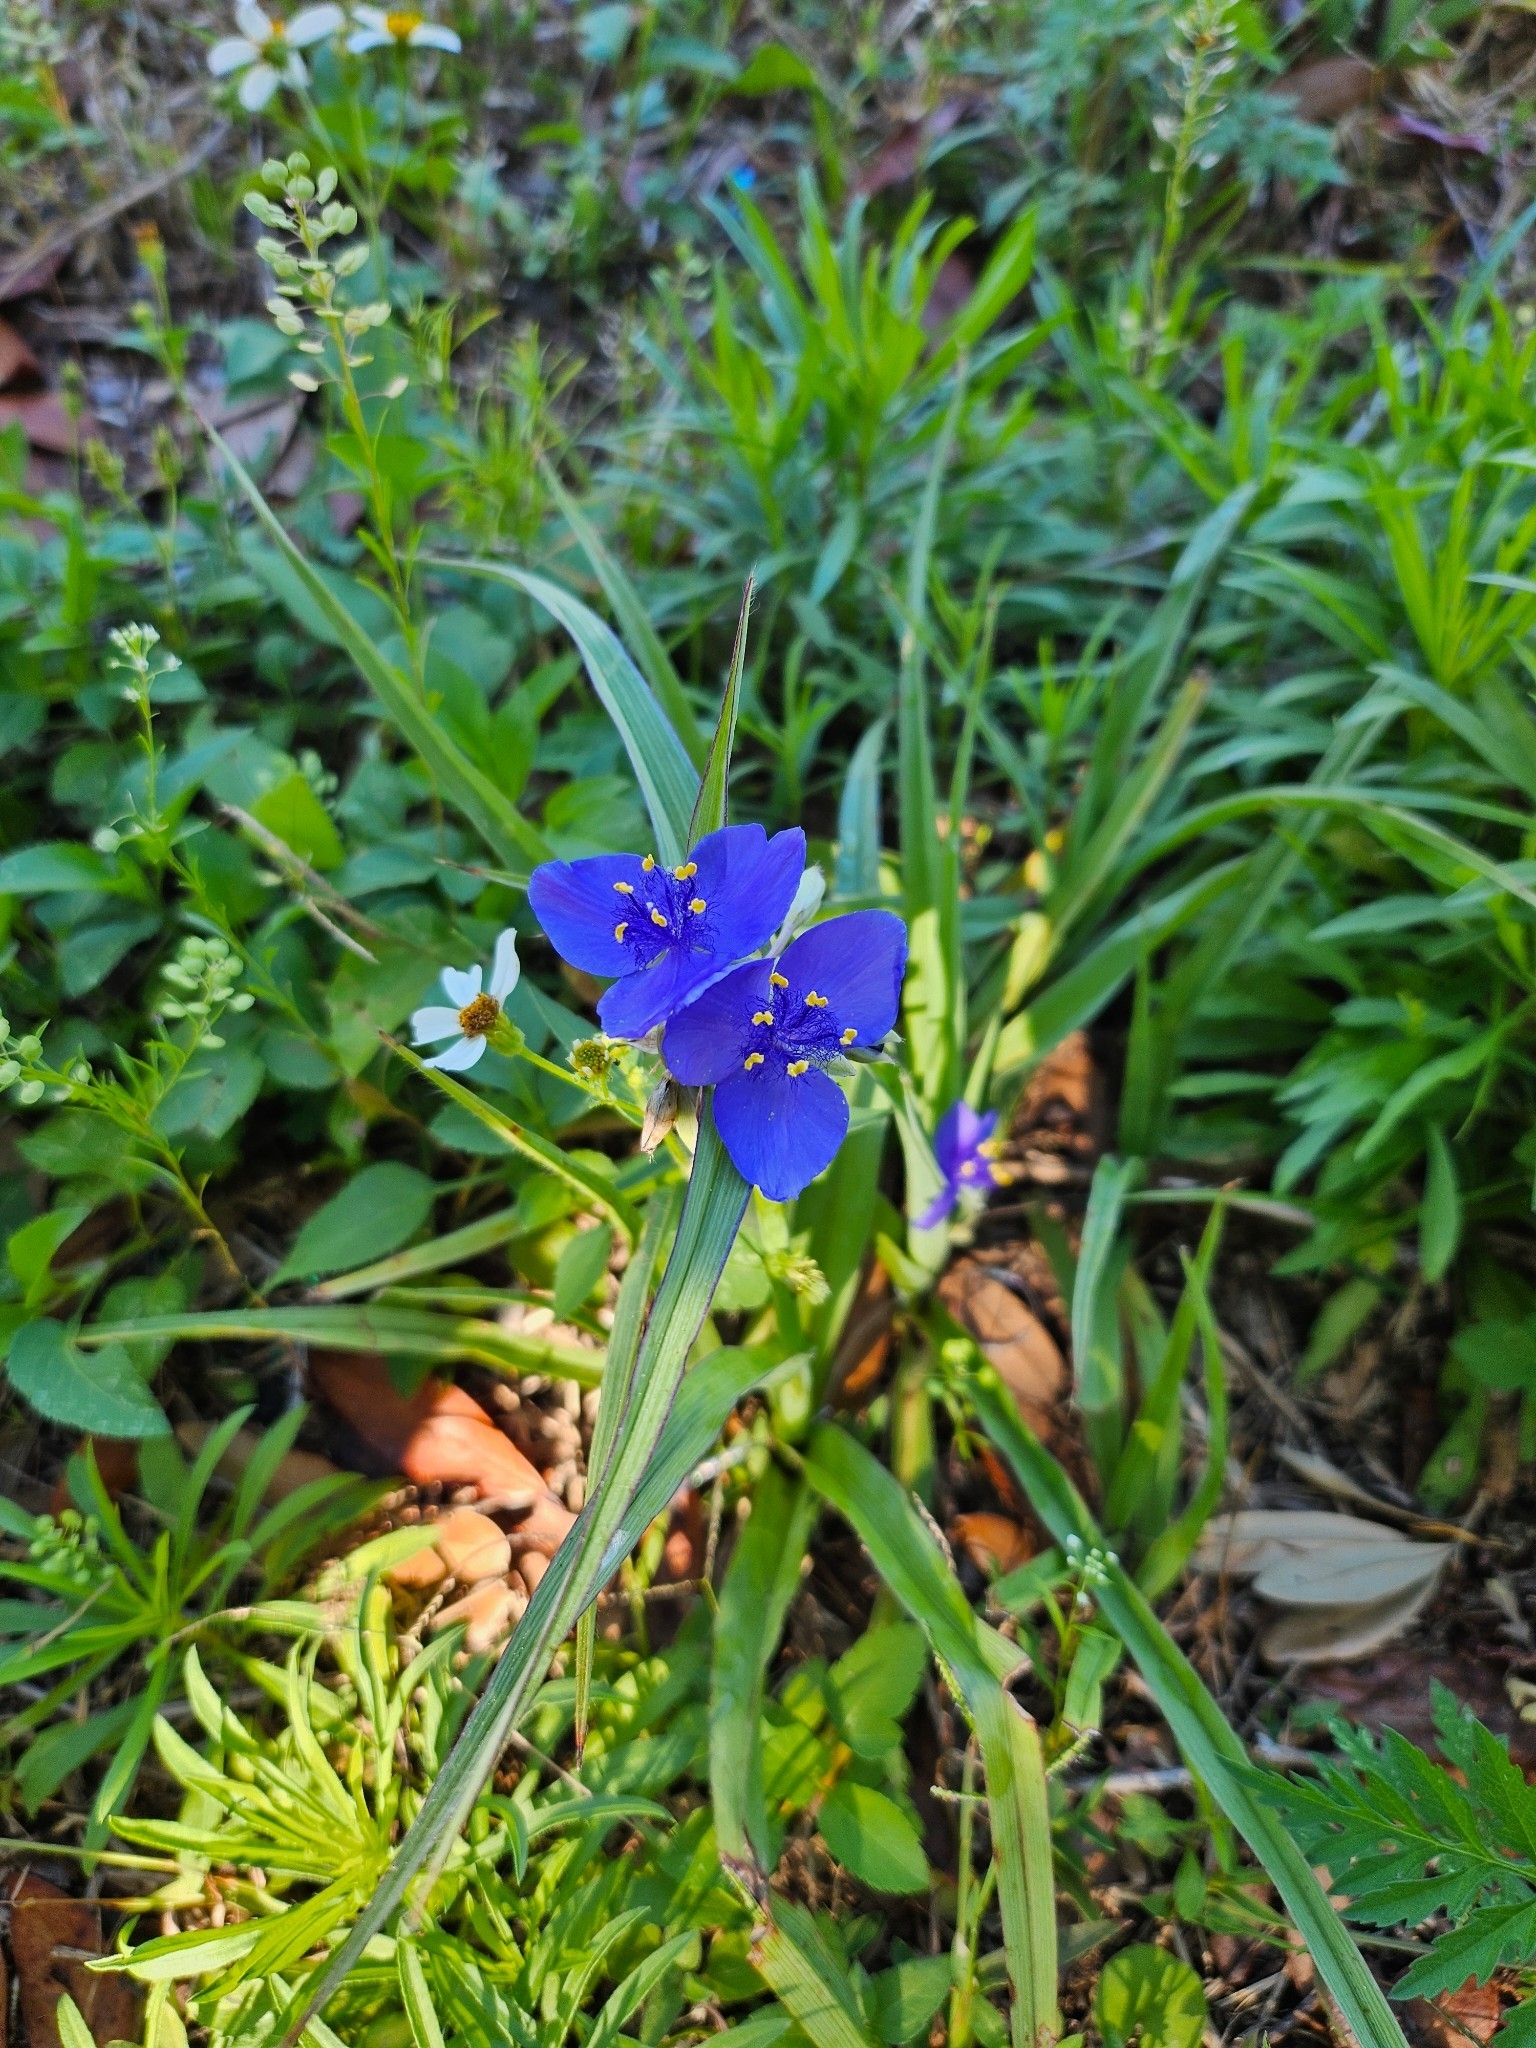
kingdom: Plantae
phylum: Tracheophyta
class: Liliopsida
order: Commelinales
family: Commelinaceae
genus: Tradescantia
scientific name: Tradescantia ohiensis
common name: Ohio spiderwort
